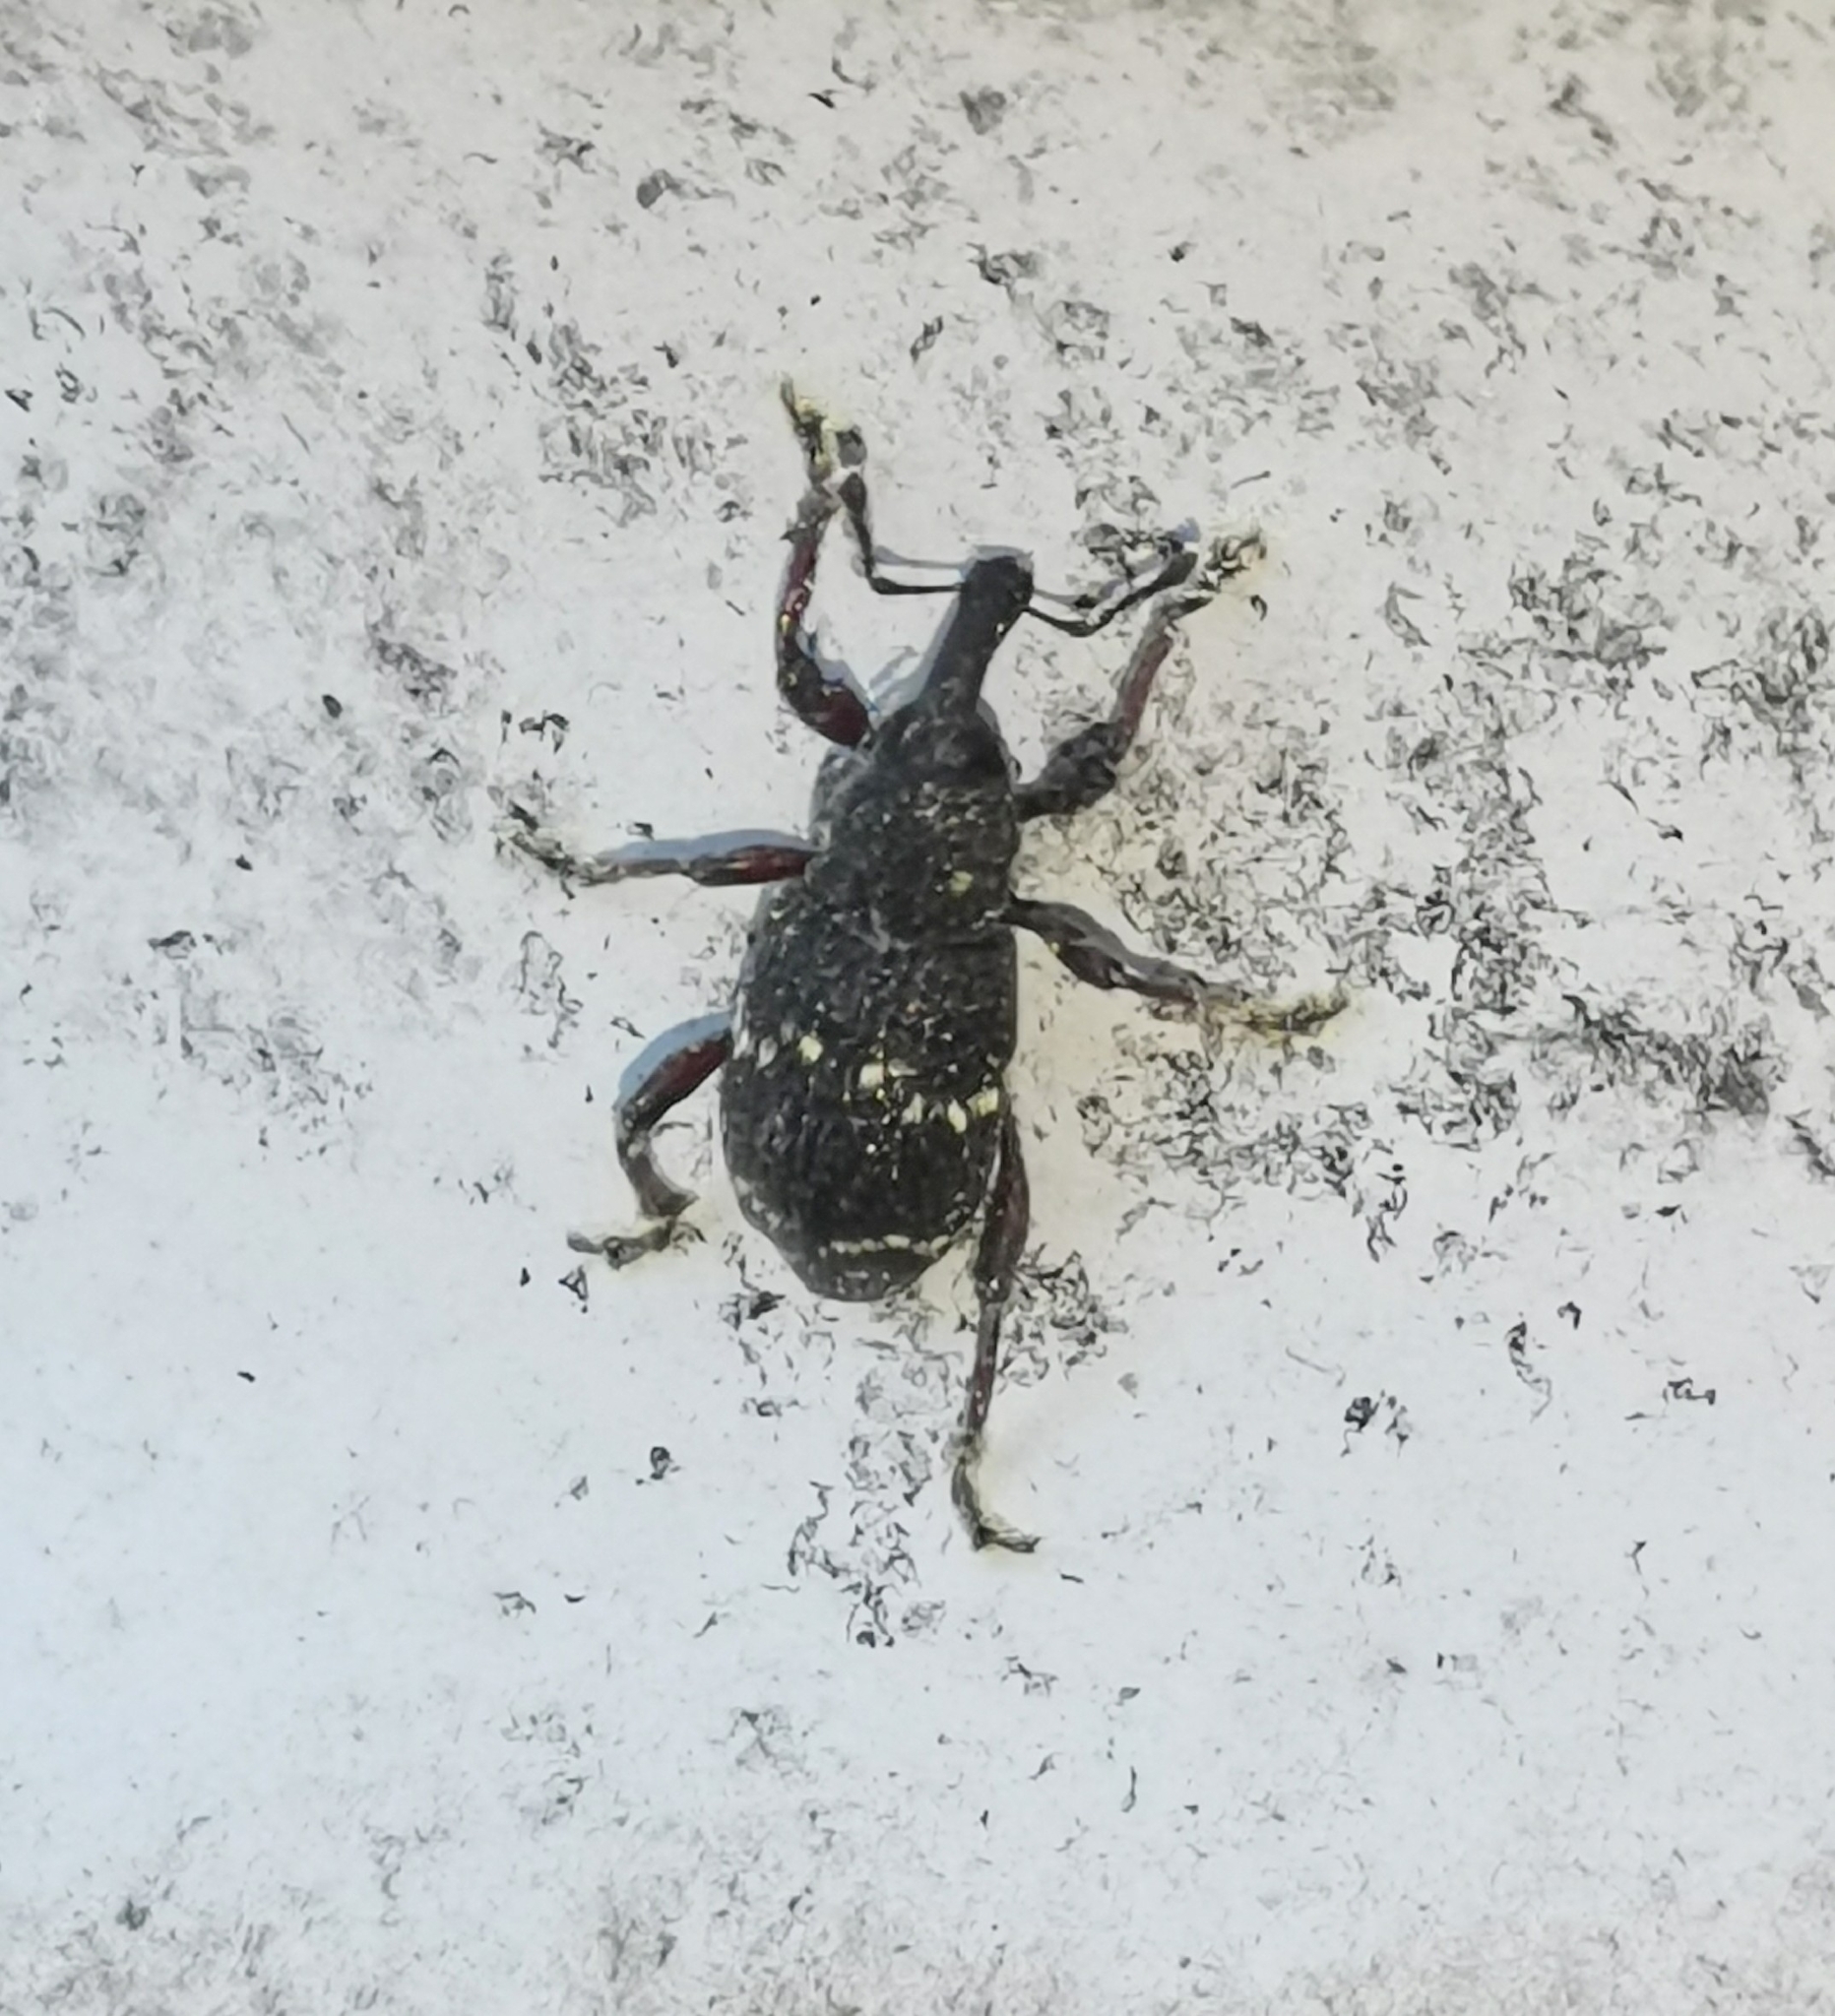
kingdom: Animalia
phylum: Arthropoda
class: Insecta
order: Coleoptera
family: Curculionidae
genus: Hylobius
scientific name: Hylobius abietis
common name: Large pine weevil
